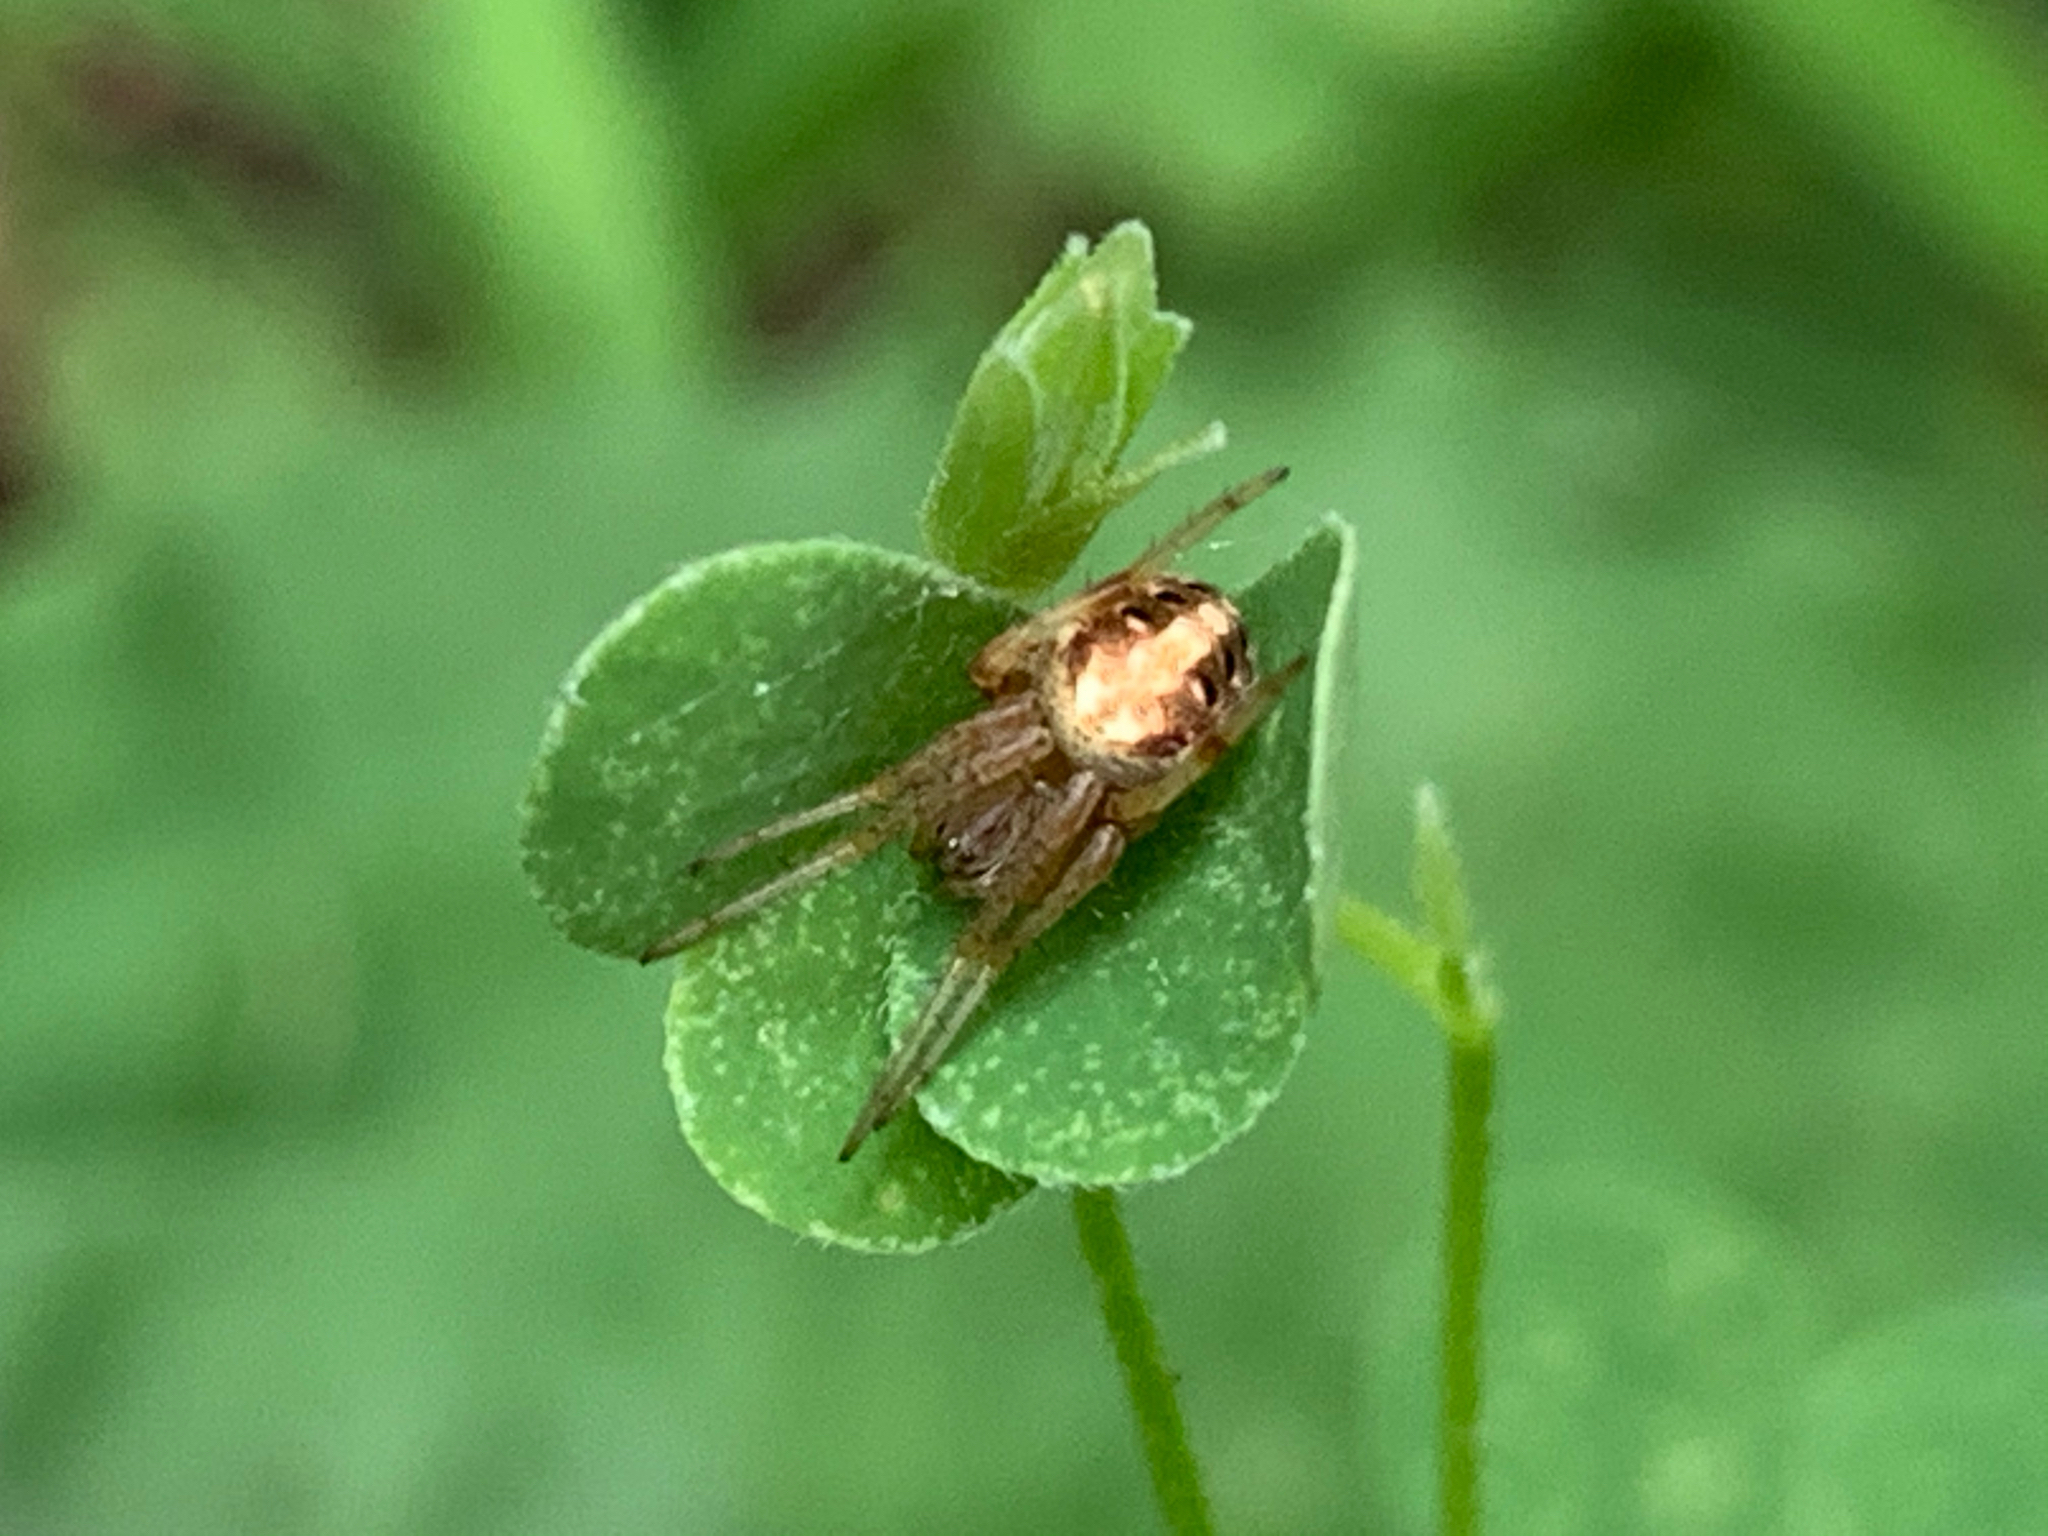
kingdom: Animalia
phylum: Arthropoda
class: Arachnida
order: Araneae
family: Araneidae
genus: Neoscona
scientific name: Neoscona arabesca
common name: Orb weavers
